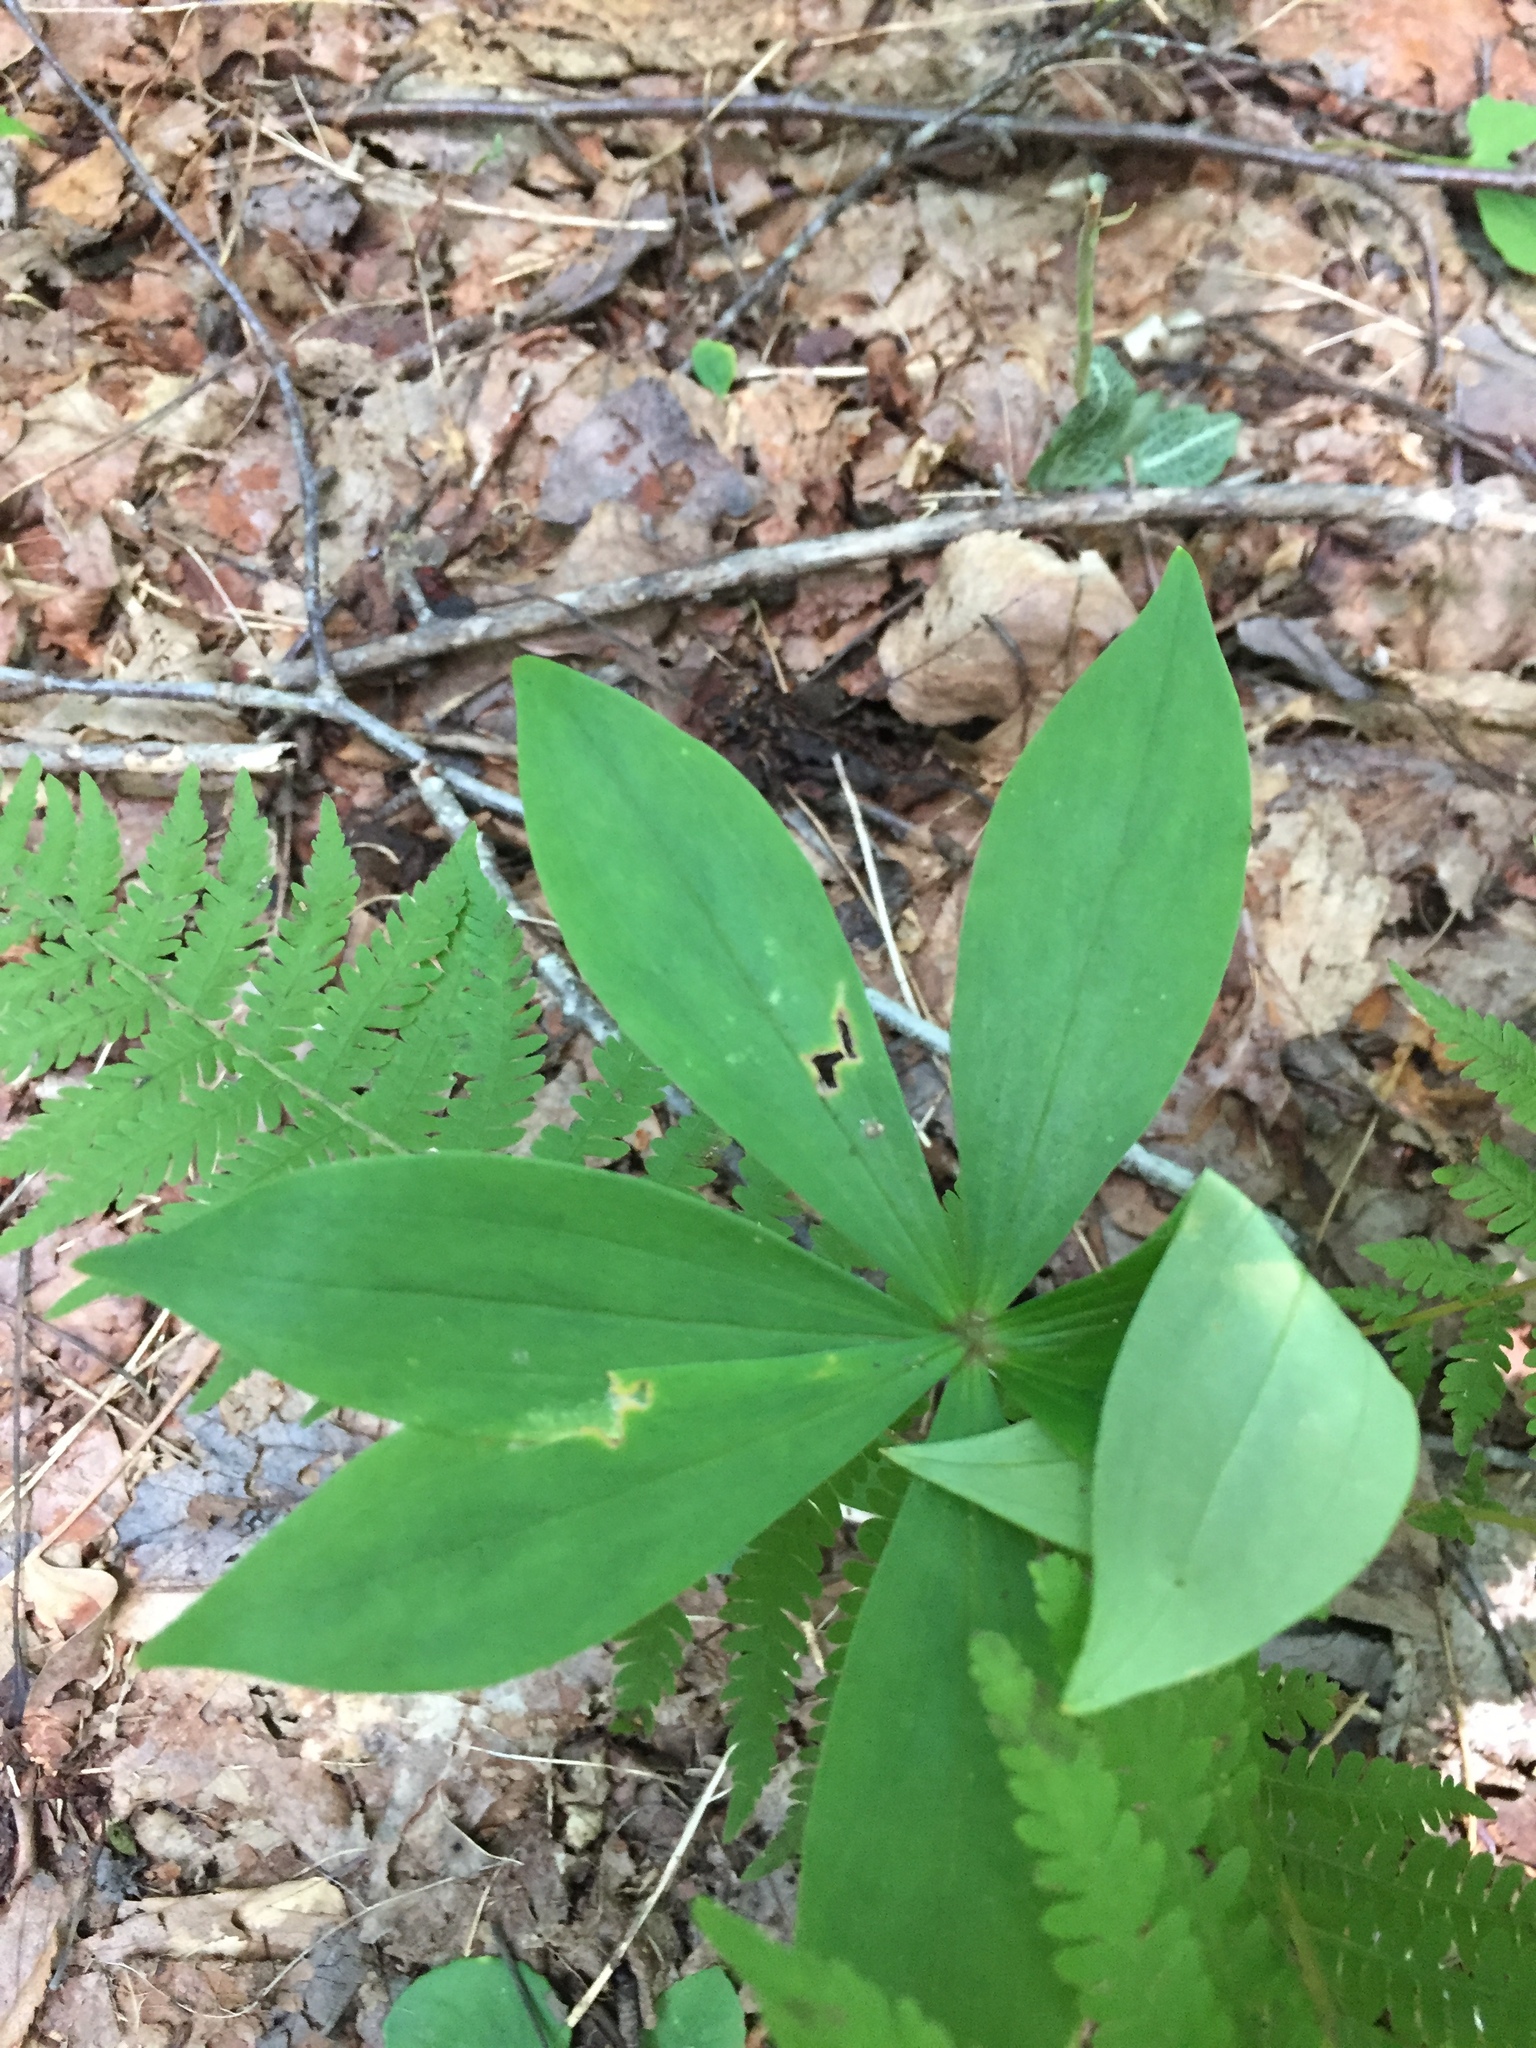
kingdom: Plantae
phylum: Tracheophyta
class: Liliopsida
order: Liliales
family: Liliaceae
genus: Medeola
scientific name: Medeola virginiana
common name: Indian cucumber-root
